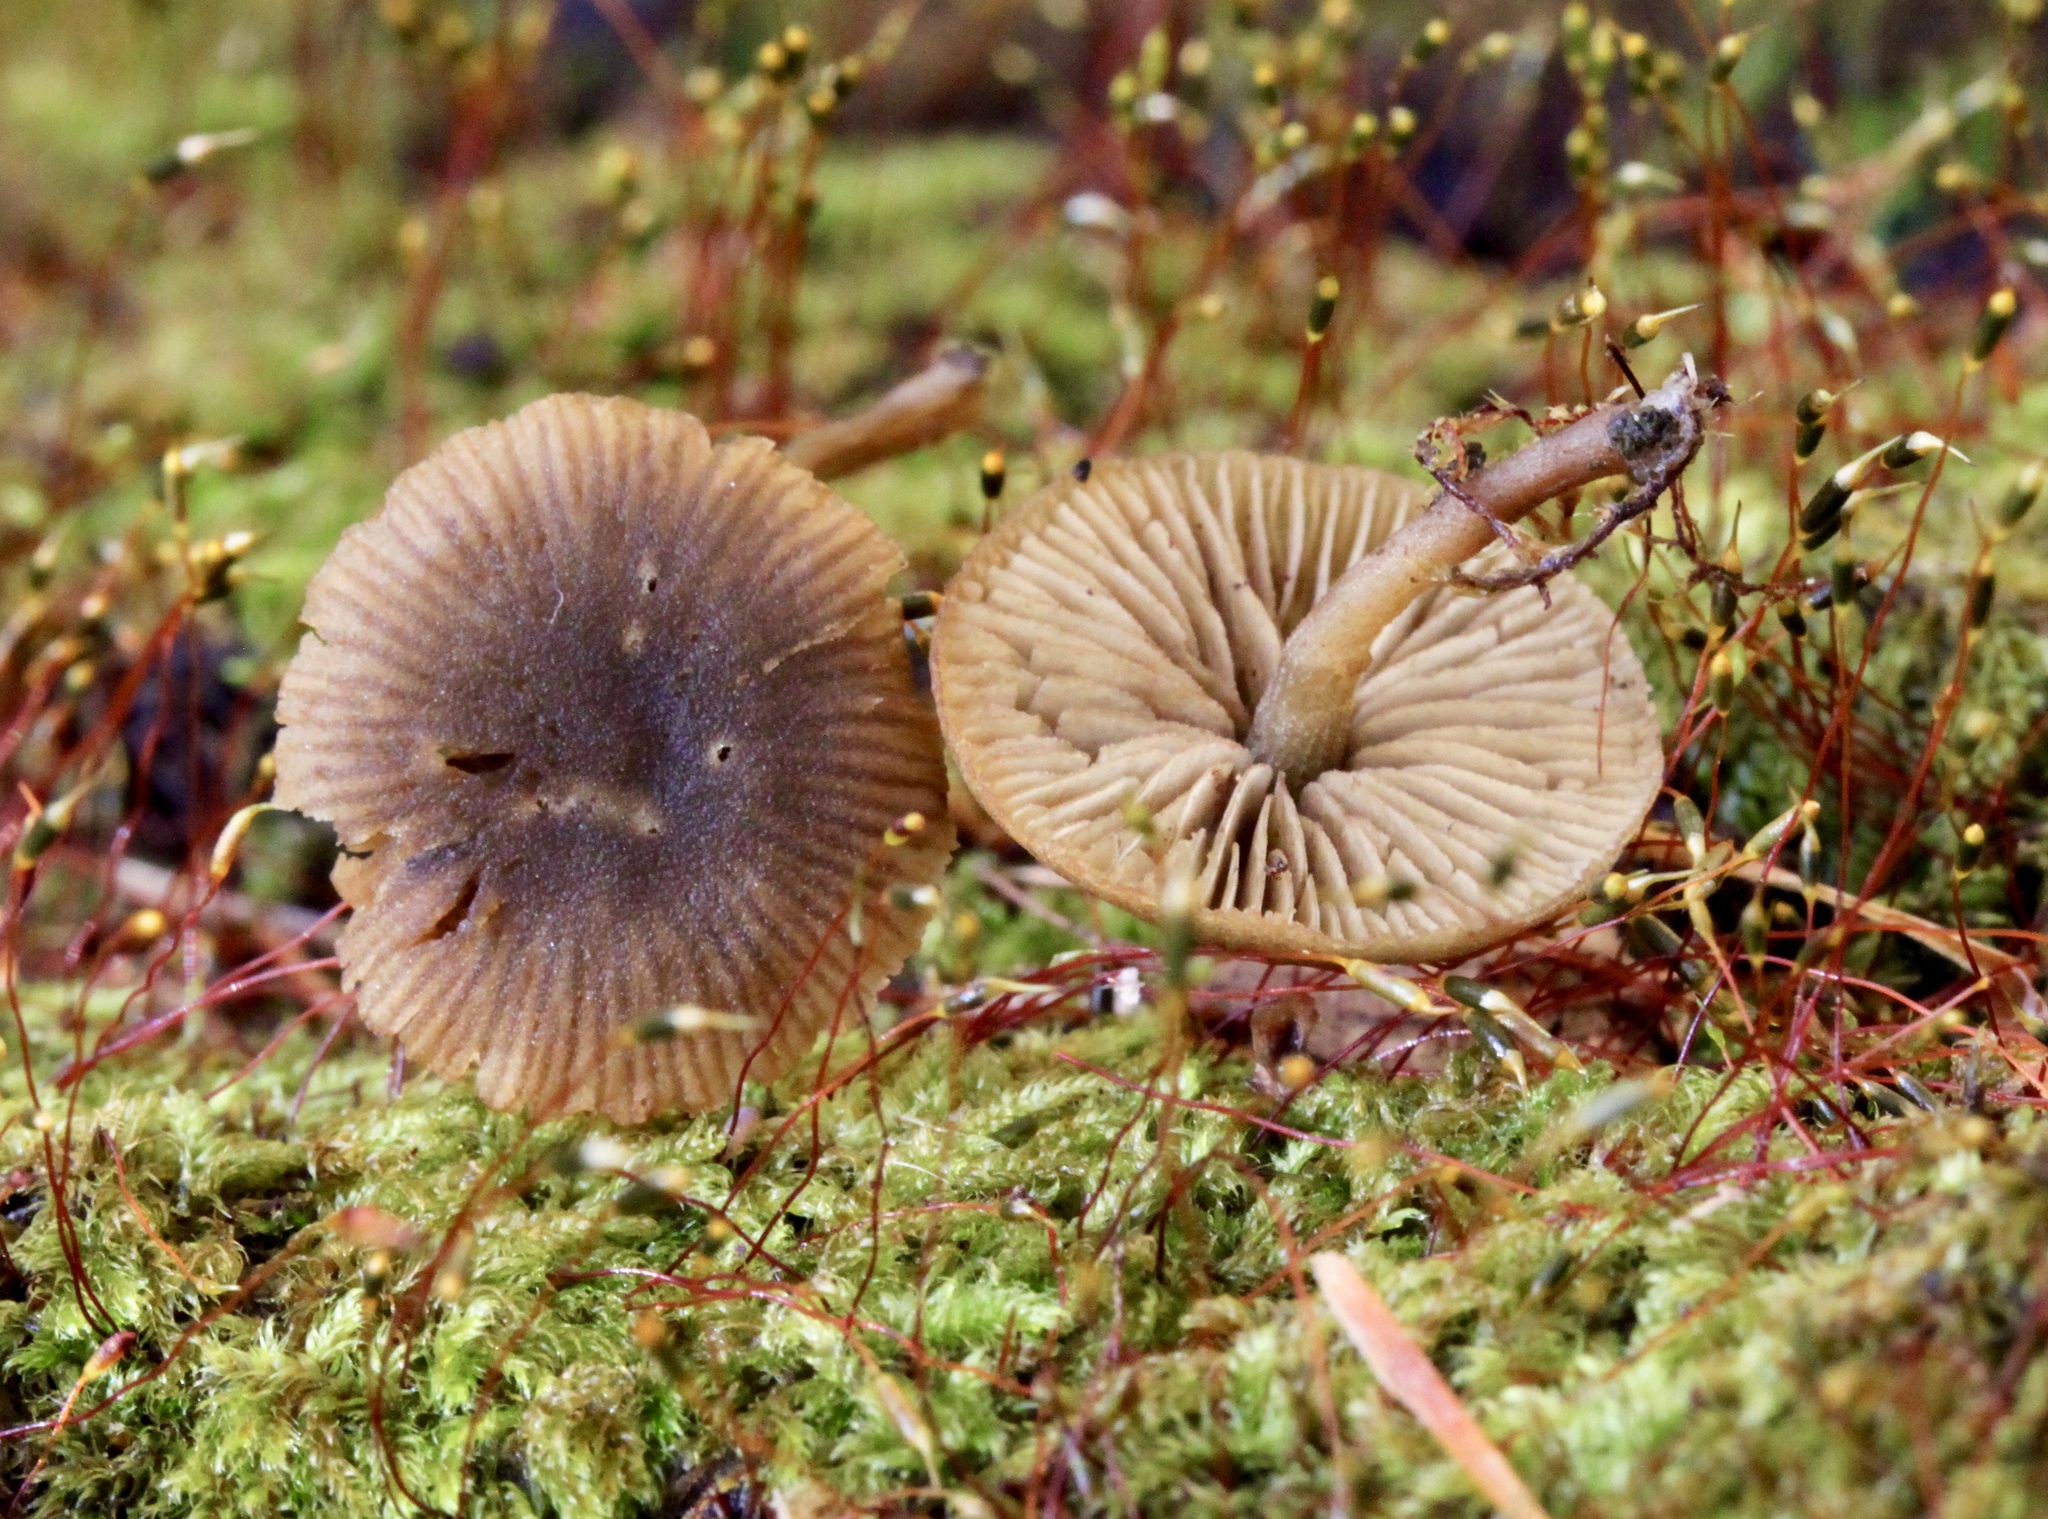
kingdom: Fungi
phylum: Basidiomycota
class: Agaricomycetes
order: Agaricales
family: Crepidotaceae
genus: Simocybe
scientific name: Simocybe centunculus
